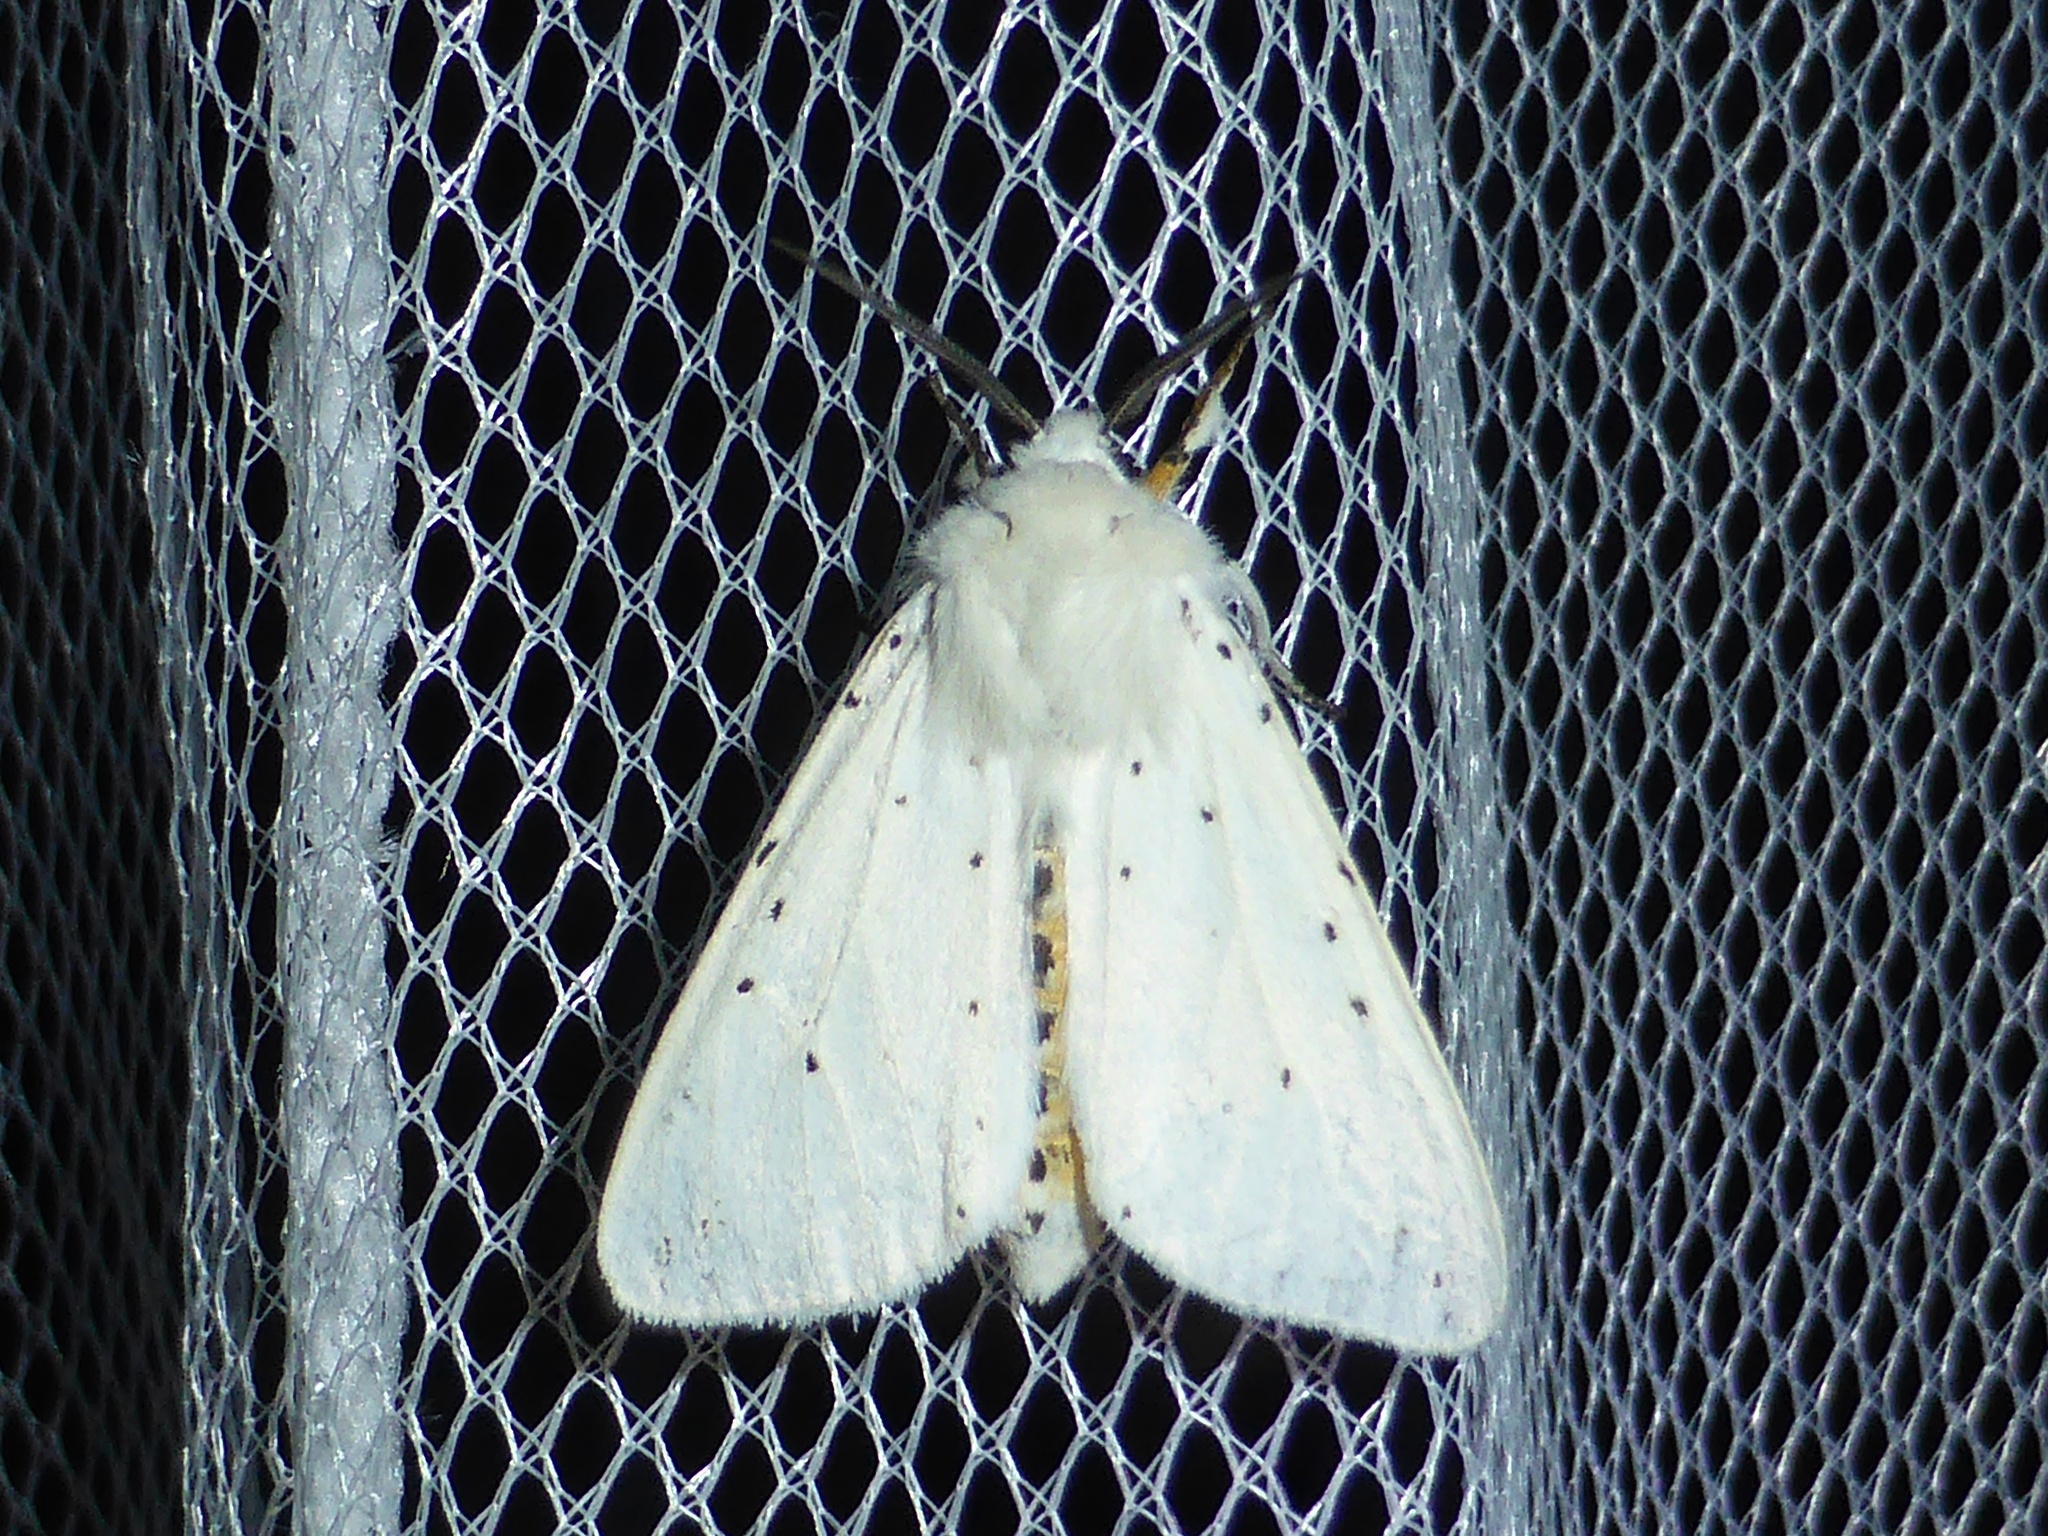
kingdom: Animalia
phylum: Arthropoda
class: Insecta
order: Lepidoptera
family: Erebidae
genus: Spilosoma
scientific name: Spilosoma lubricipeda
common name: White ermine
